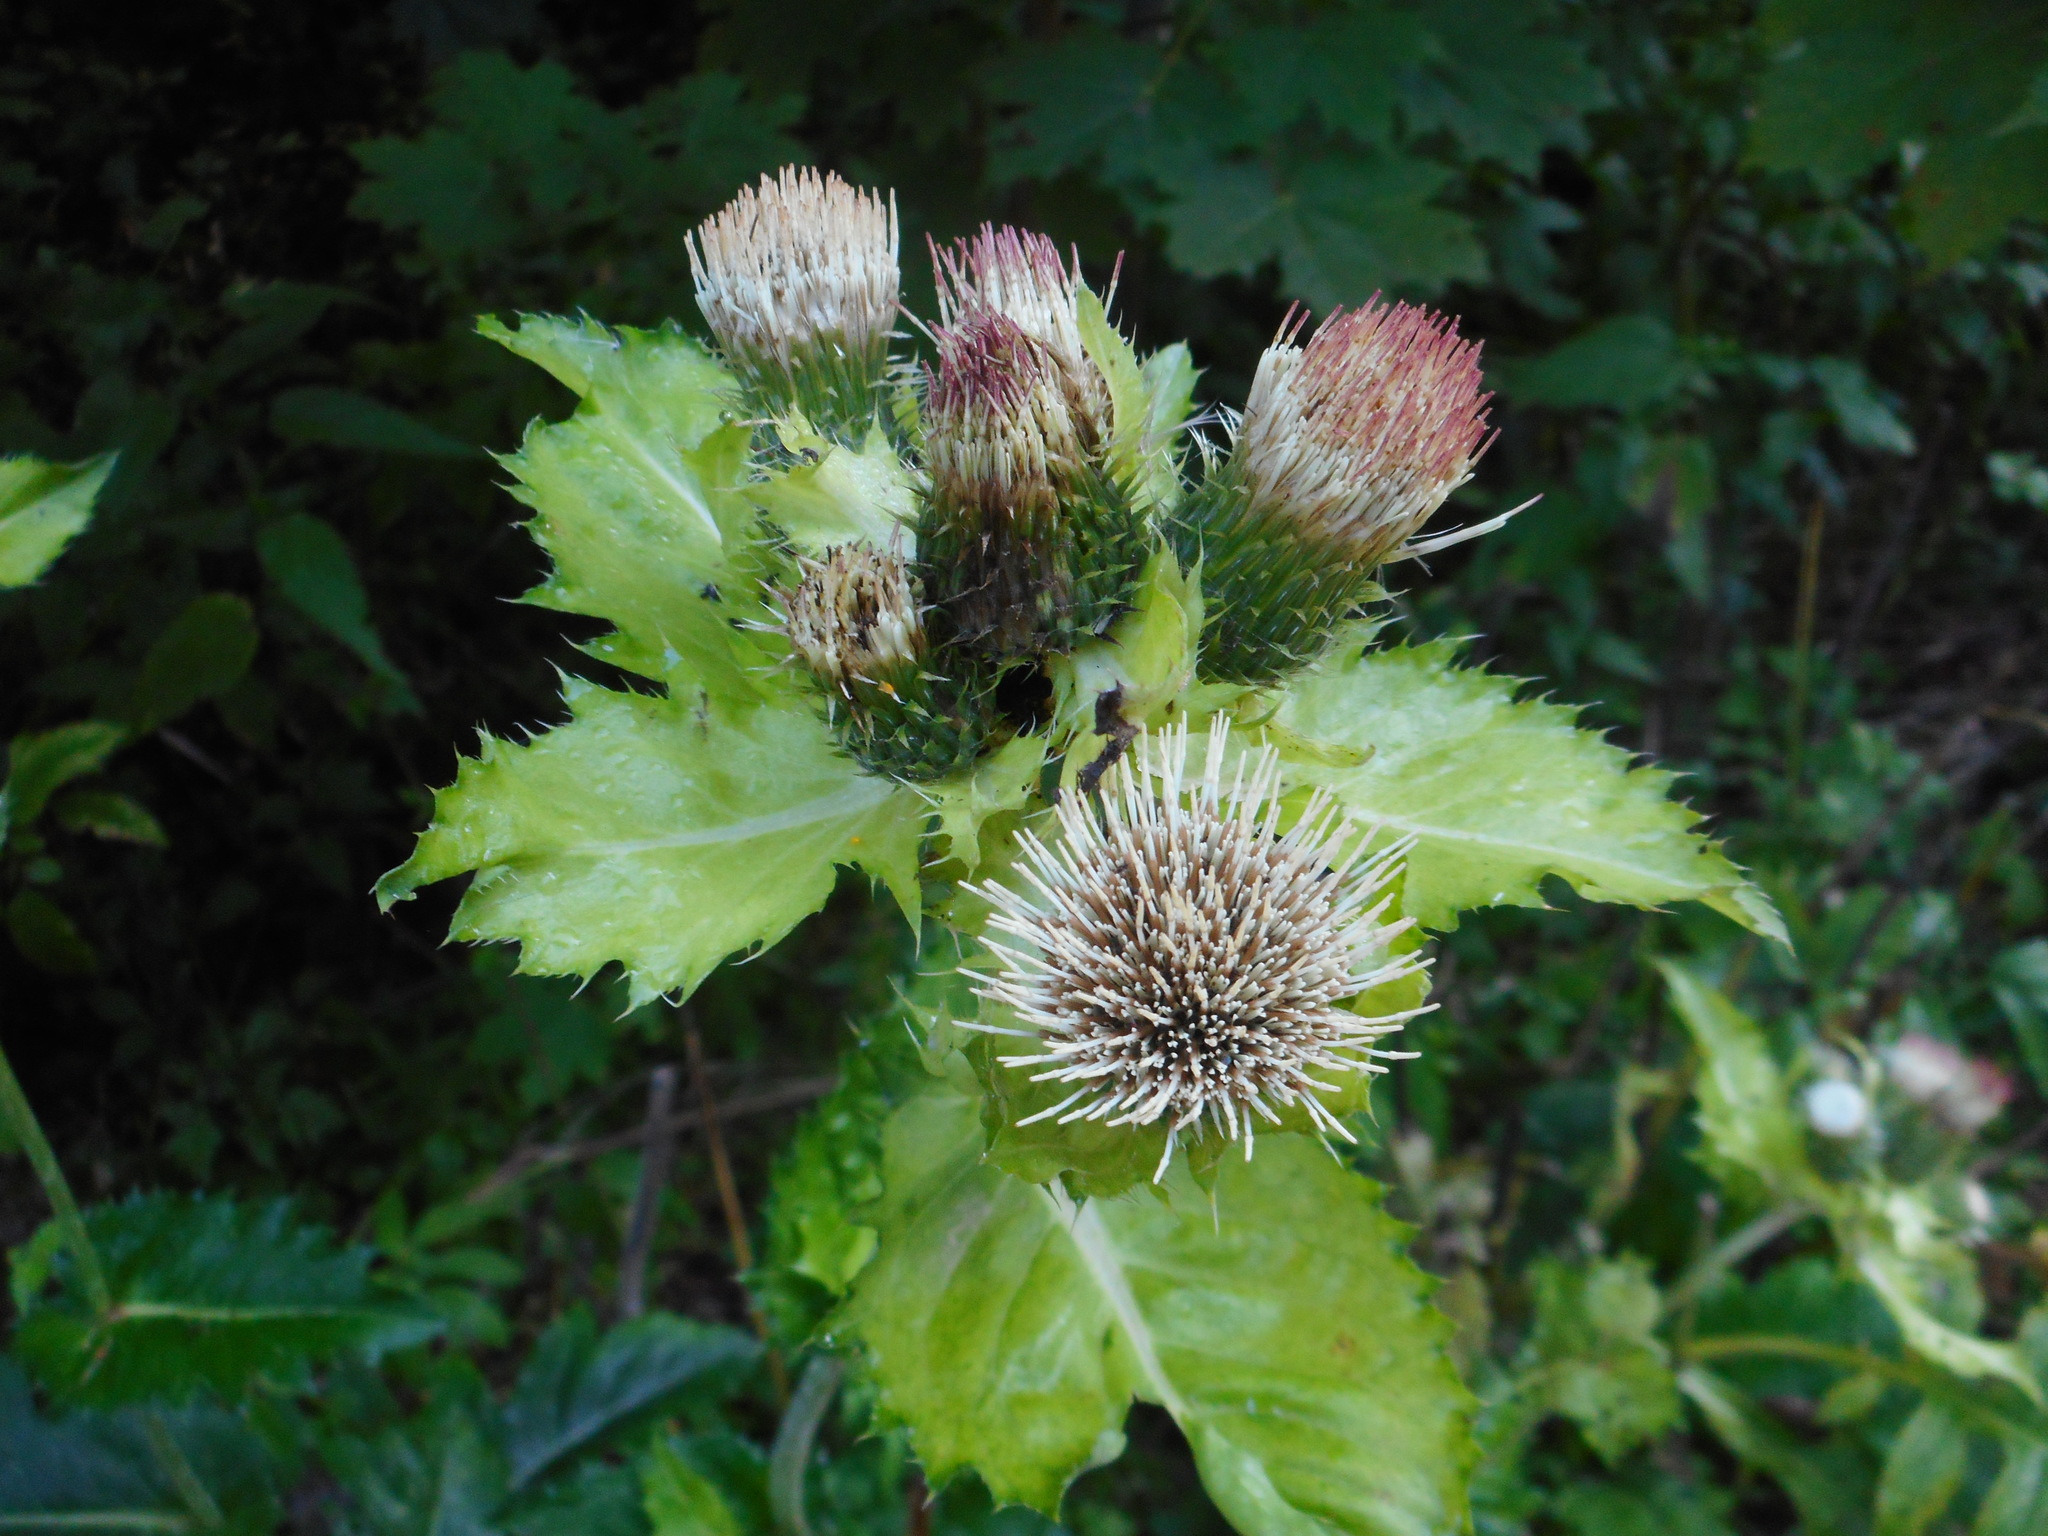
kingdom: Plantae
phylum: Tracheophyta
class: Magnoliopsida
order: Asterales
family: Asteraceae
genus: Cirsium
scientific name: Cirsium oleraceum
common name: Cabbage thistle
